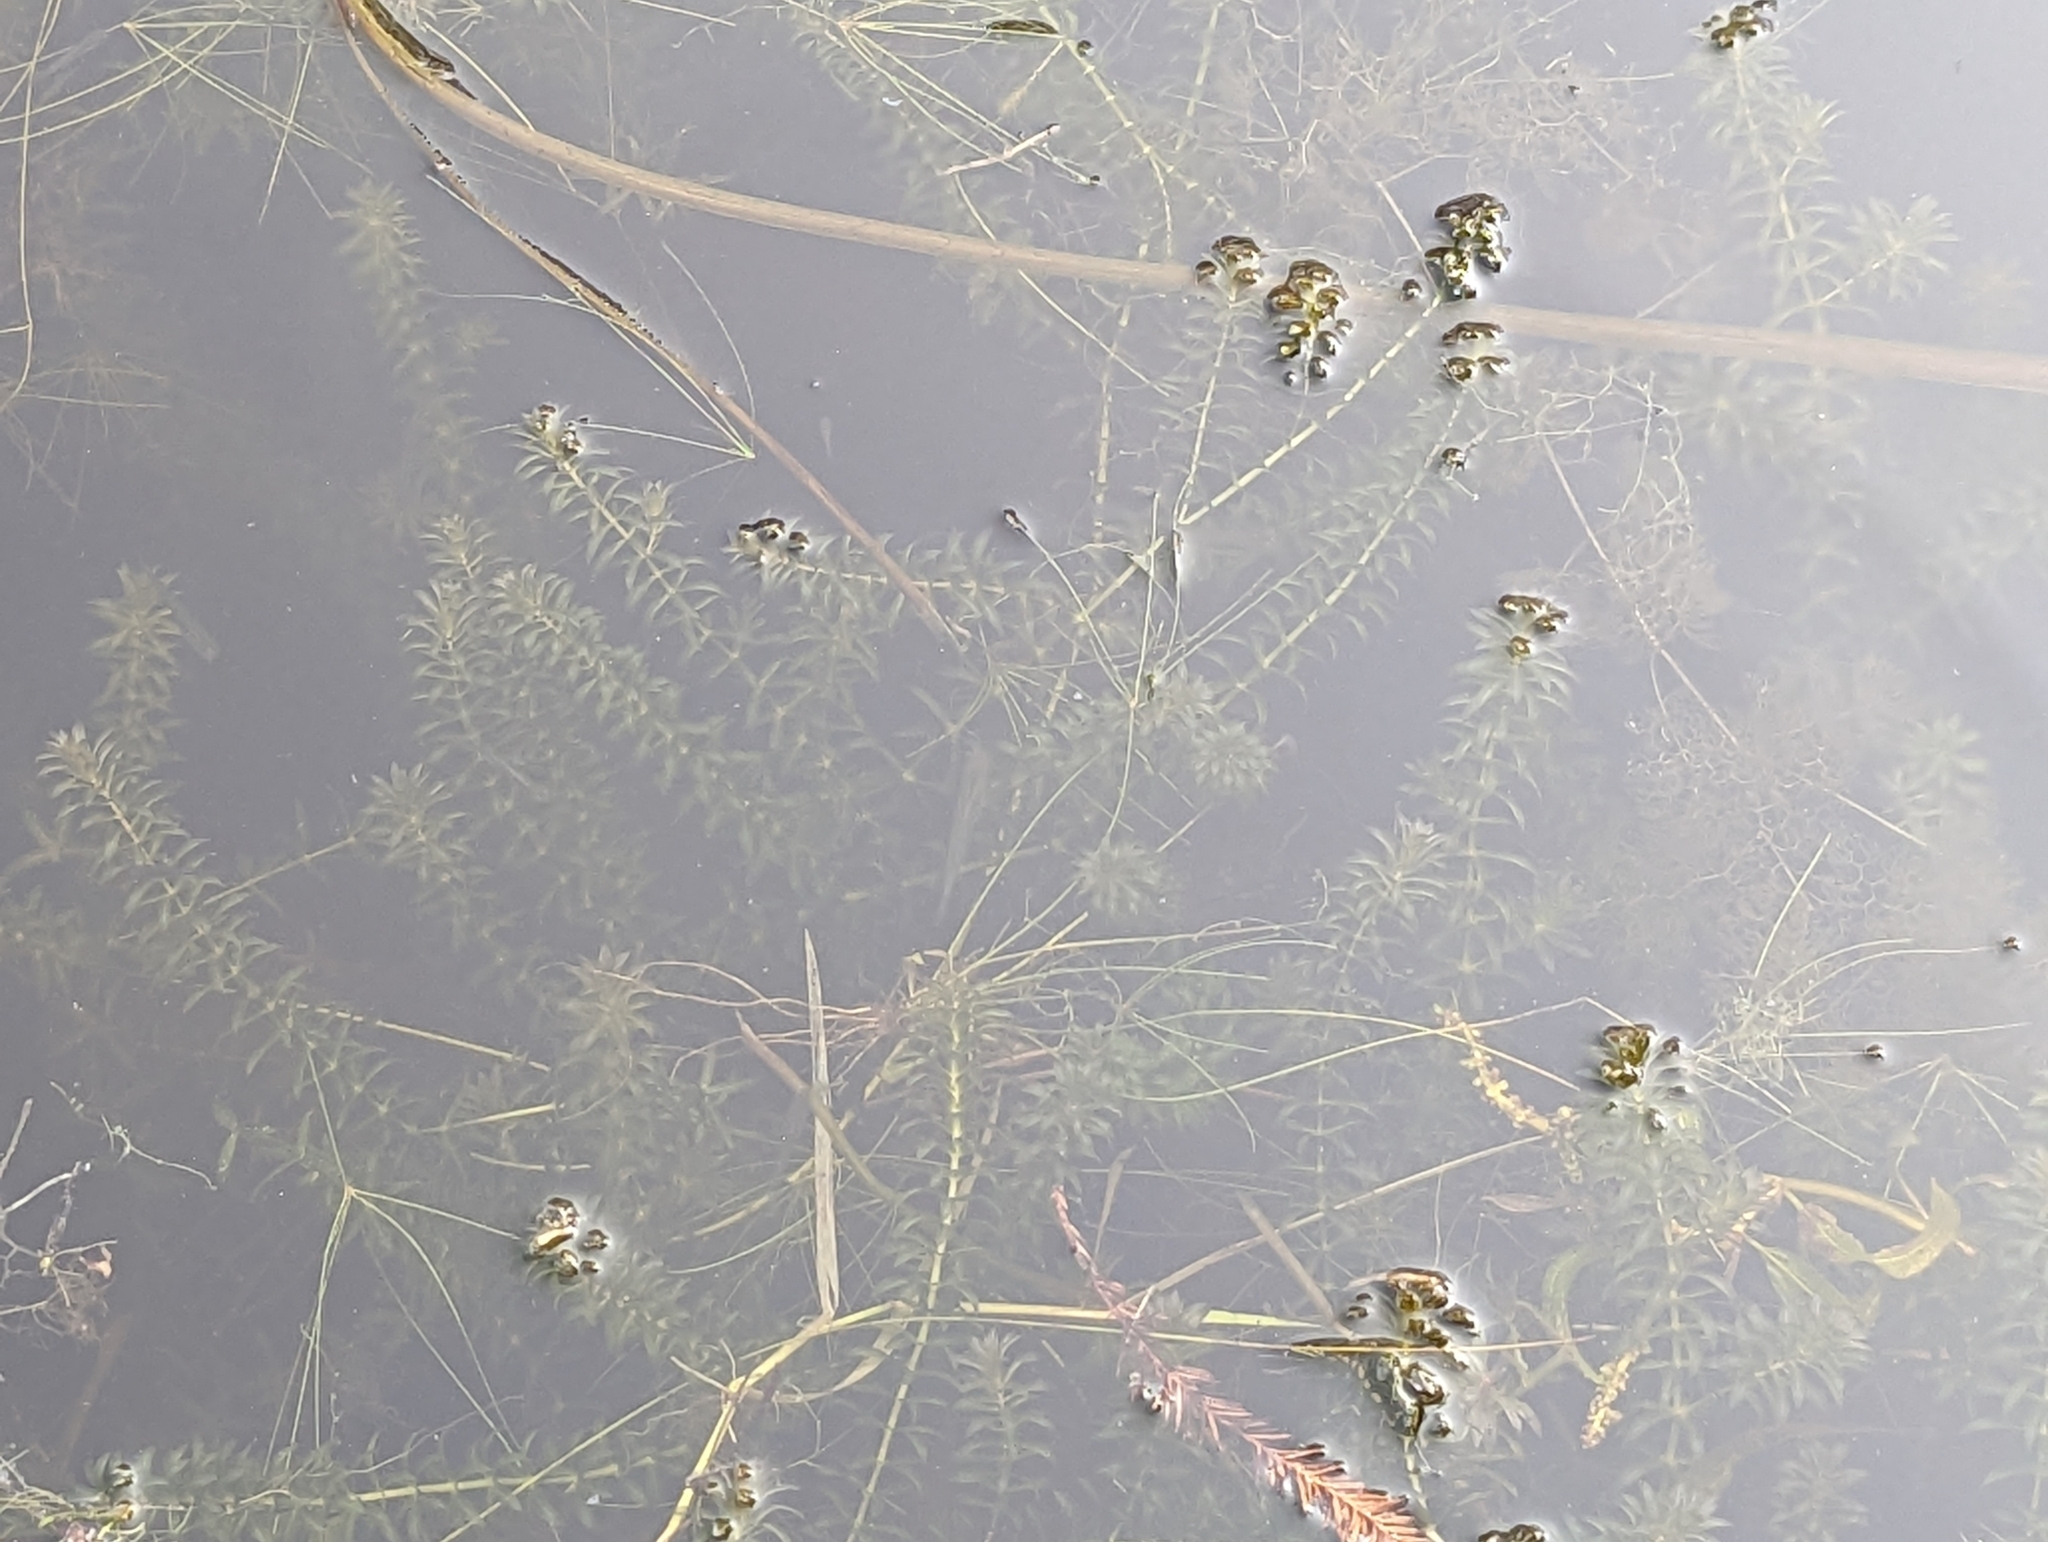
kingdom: Plantae
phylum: Tracheophyta
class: Liliopsida
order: Alismatales
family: Hydrocharitaceae
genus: Hydrilla
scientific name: Hydrilla verticillata
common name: Florida-elodea
